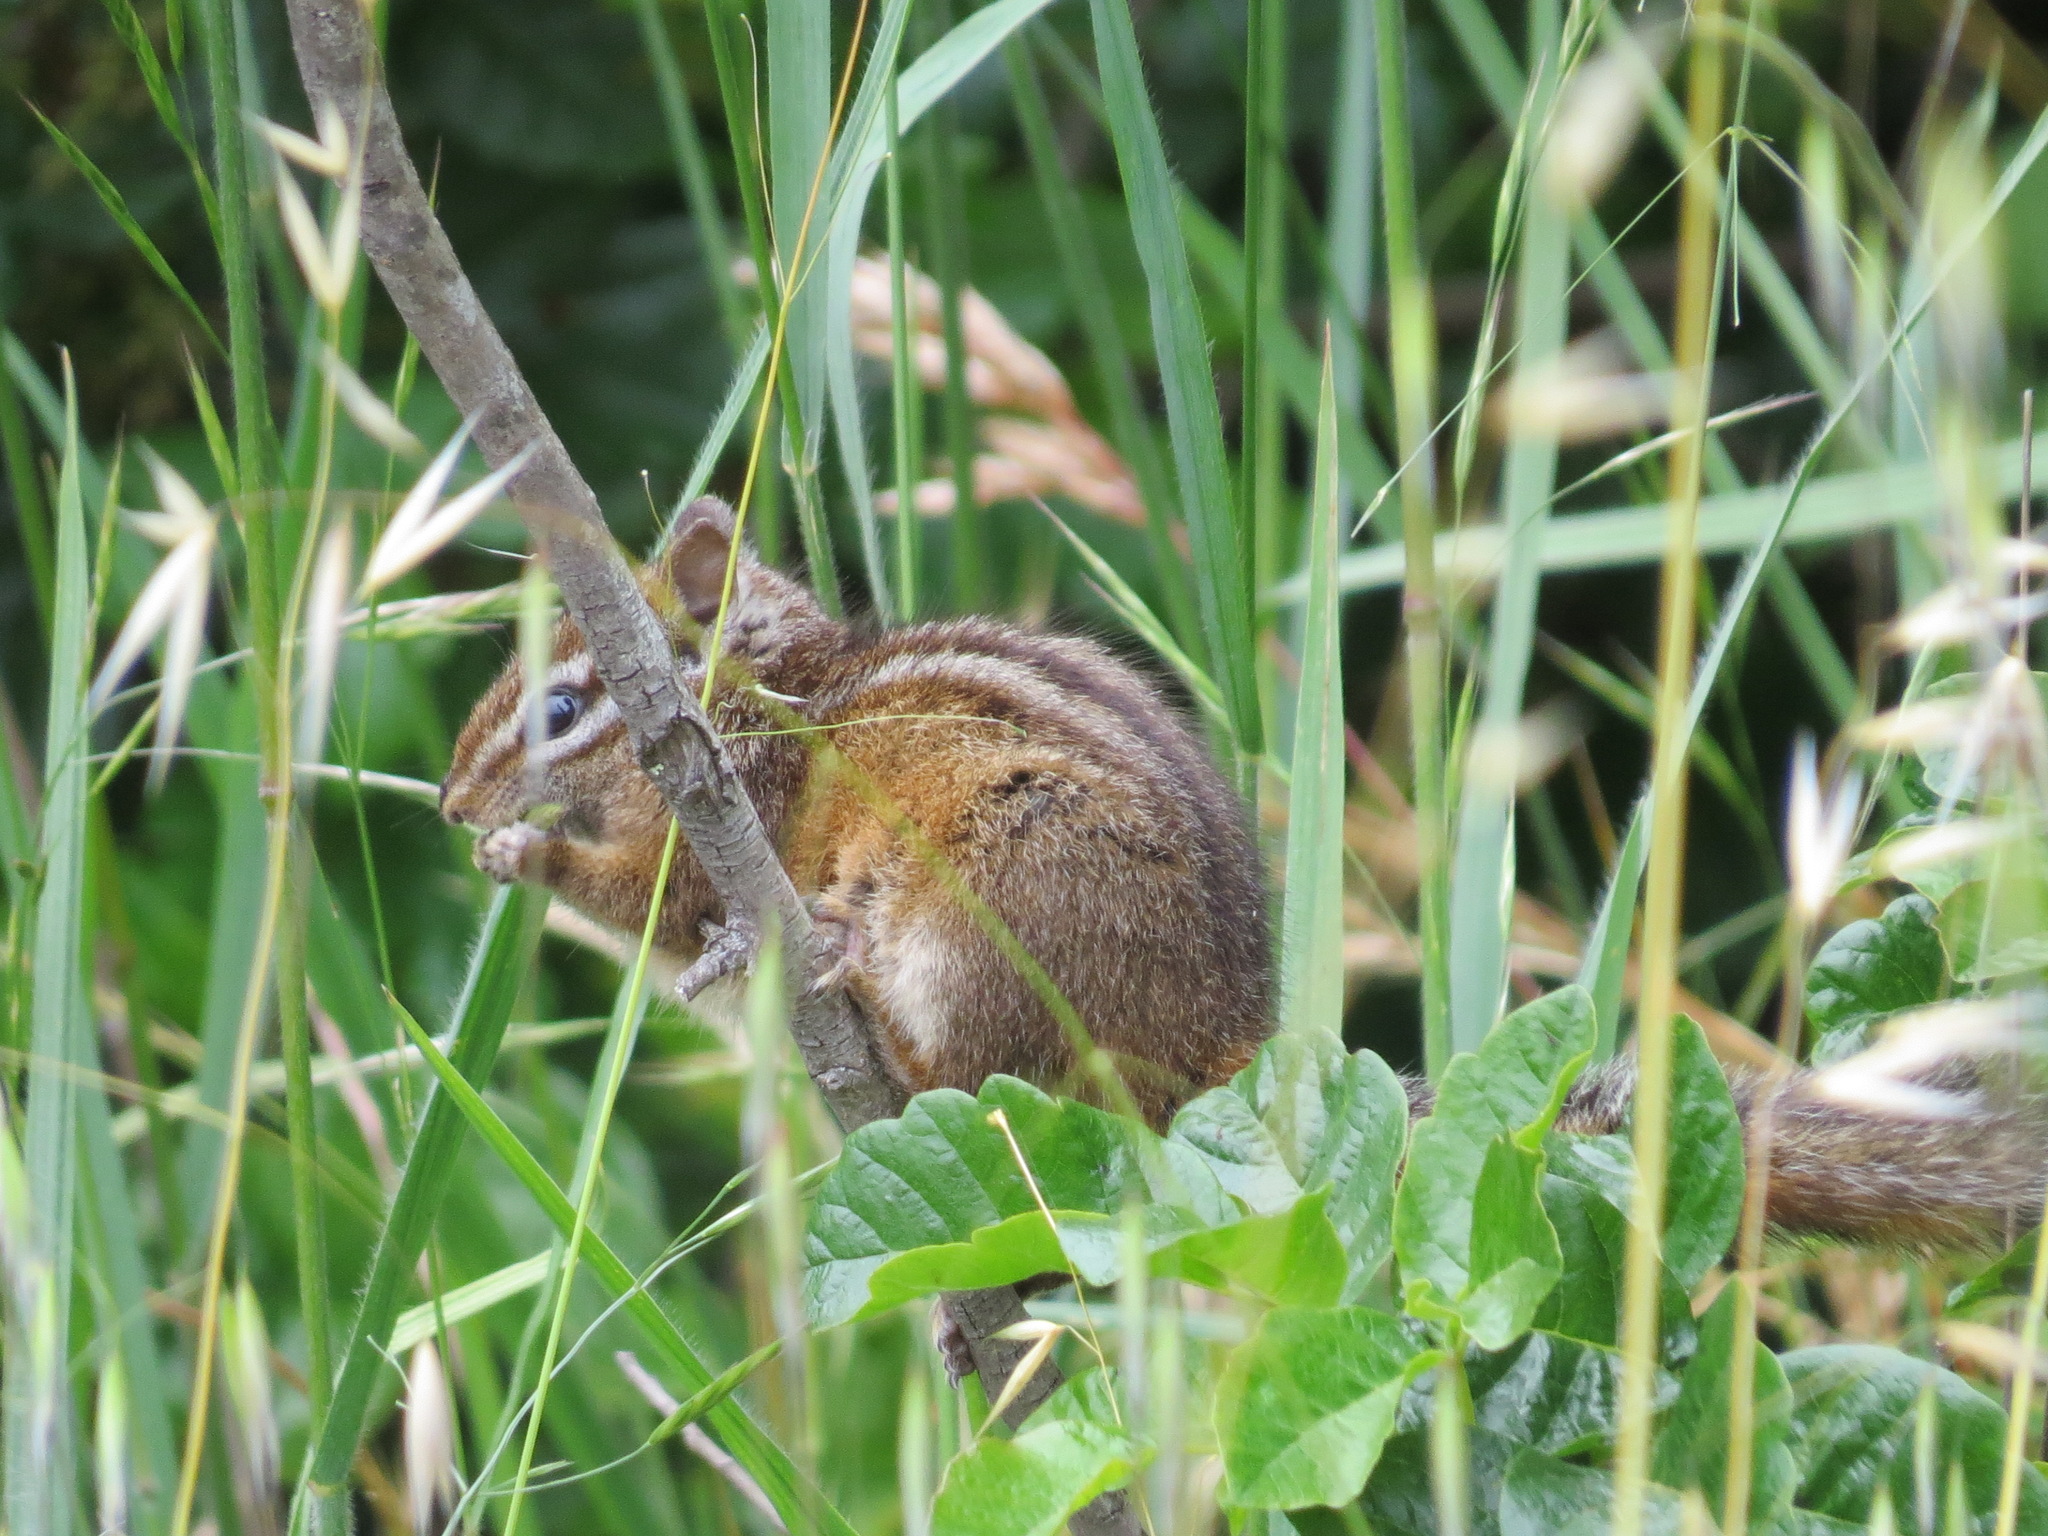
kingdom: Animalia
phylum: Chordata
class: Mammalia
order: Rodentia
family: Sciuridae
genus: Tamias
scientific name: Tamias merriami
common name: Merriam's chipmunk
